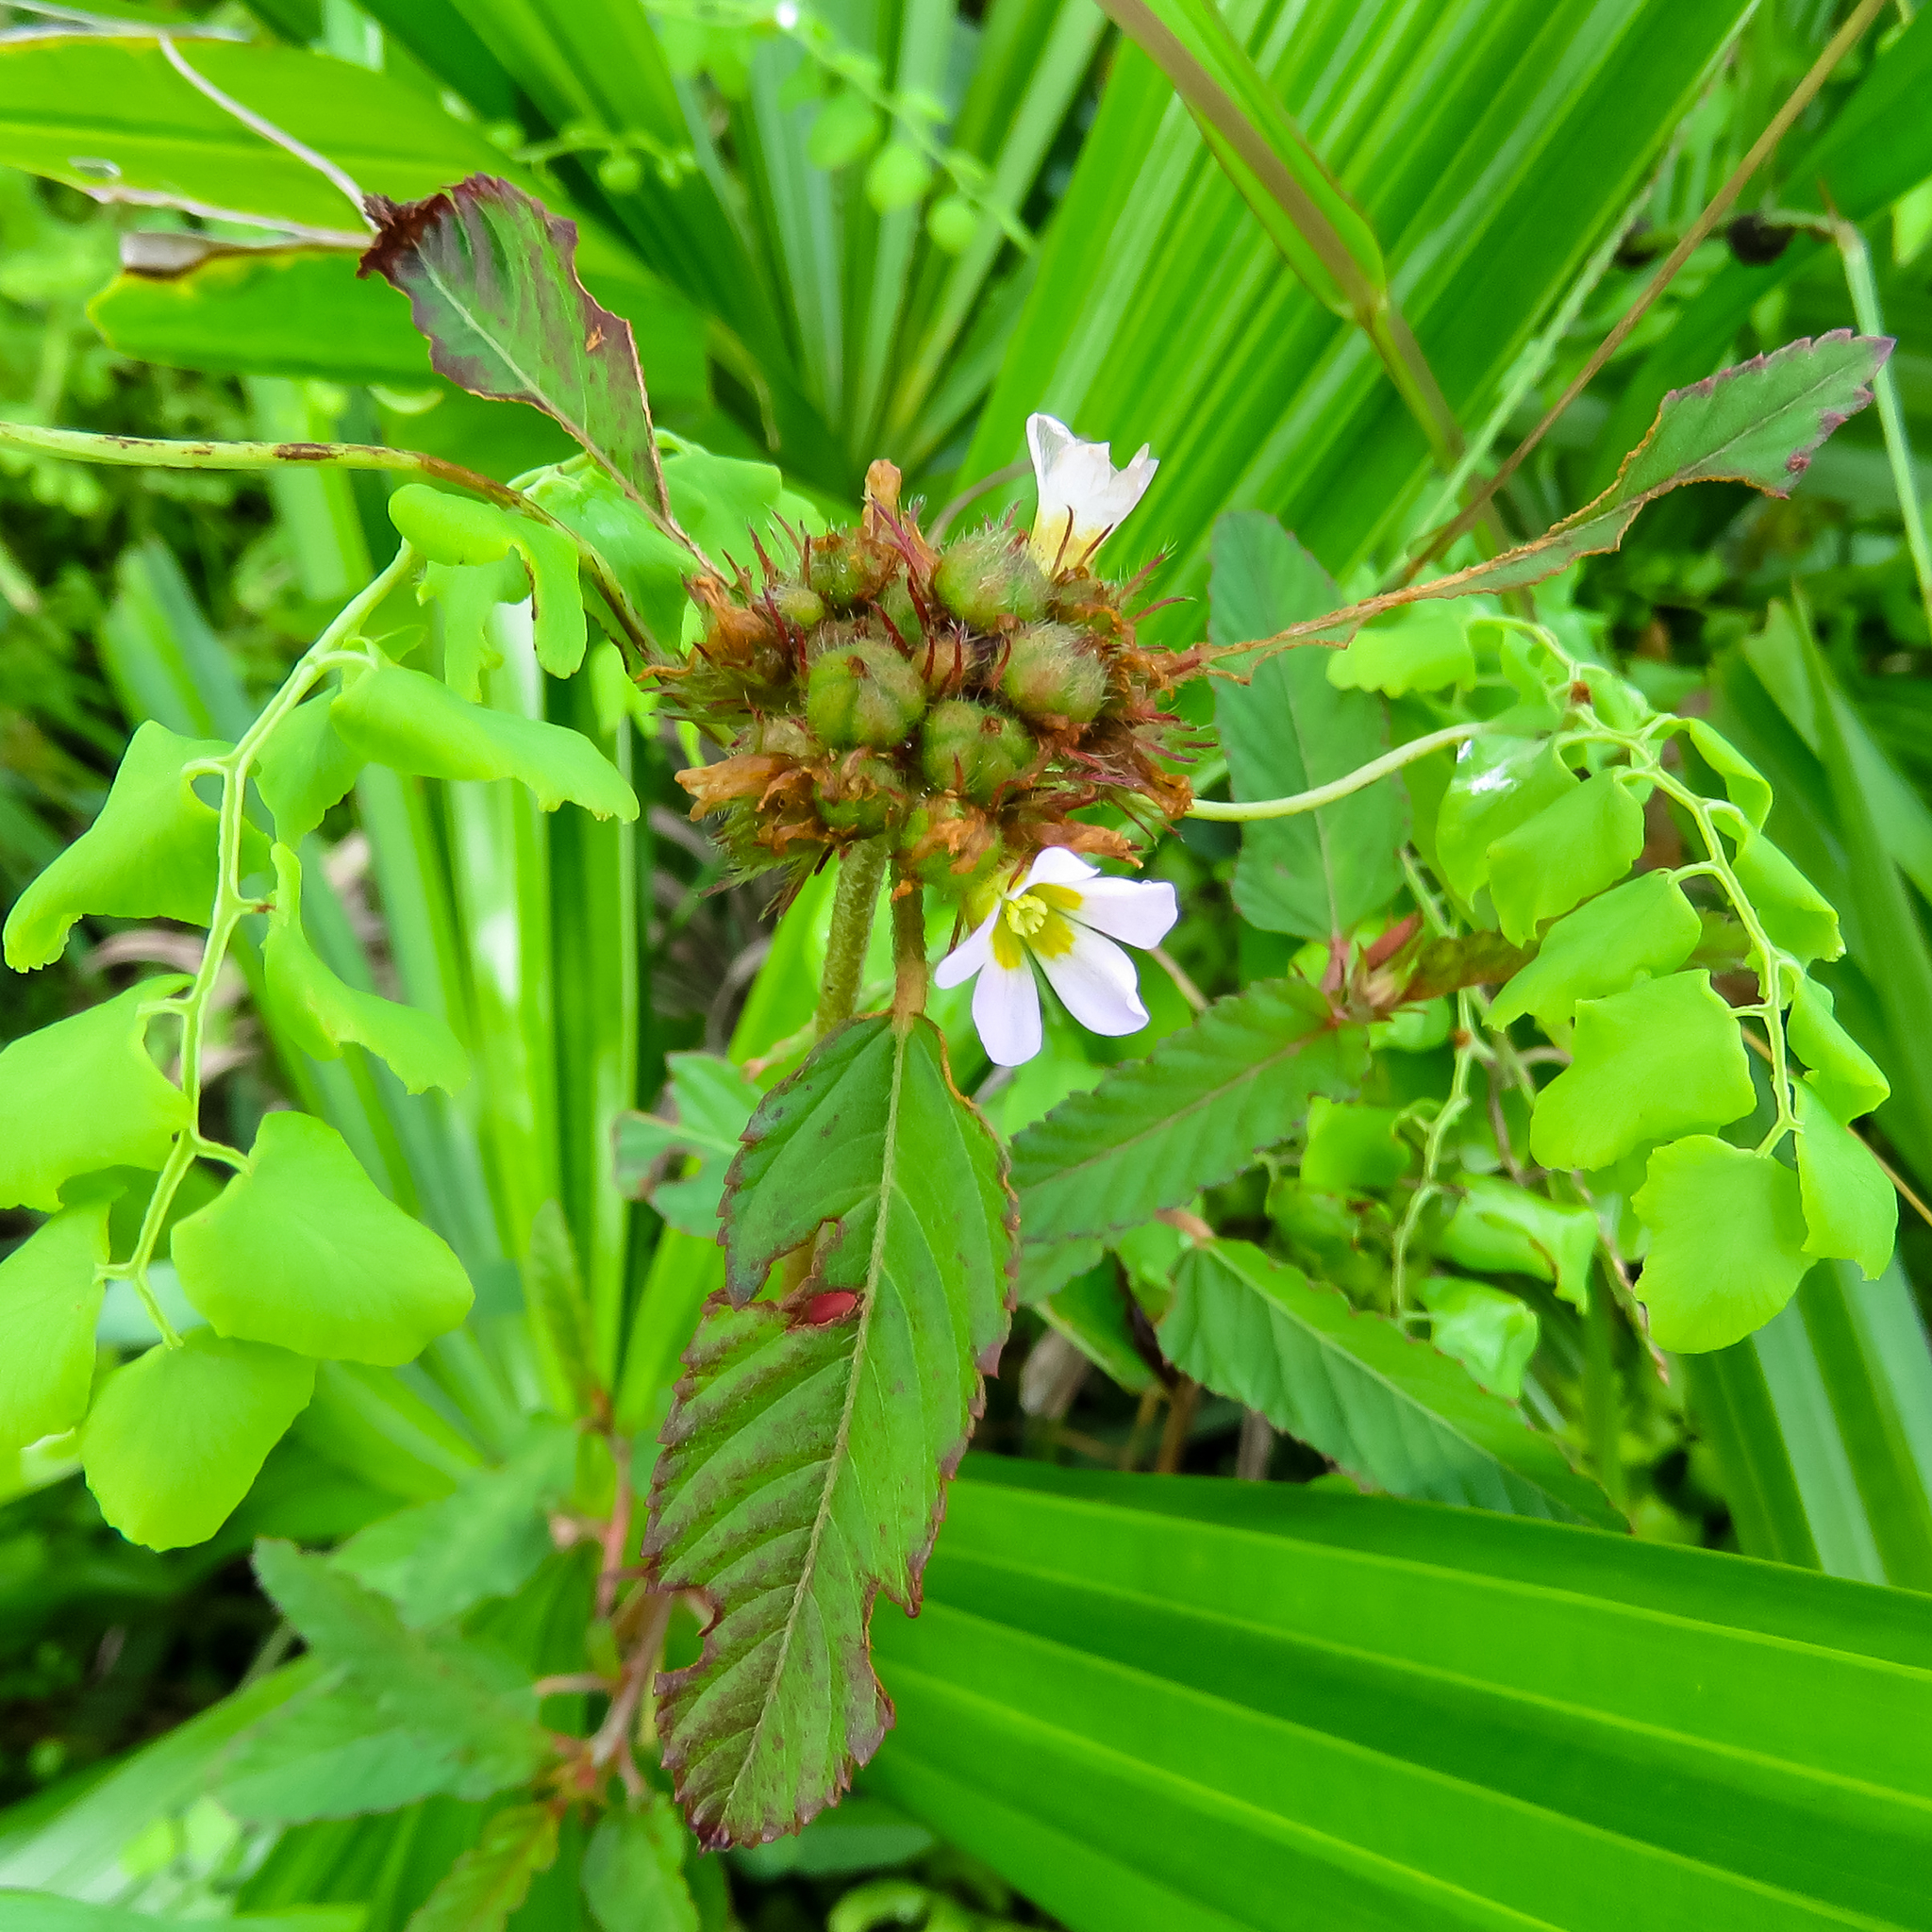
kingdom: Plantae
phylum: Tracheophyta
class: Magnoliopsida
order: Malvales
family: Malvaceae
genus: Melochia
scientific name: Melochia corchorifolia
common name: Chocolateweed
